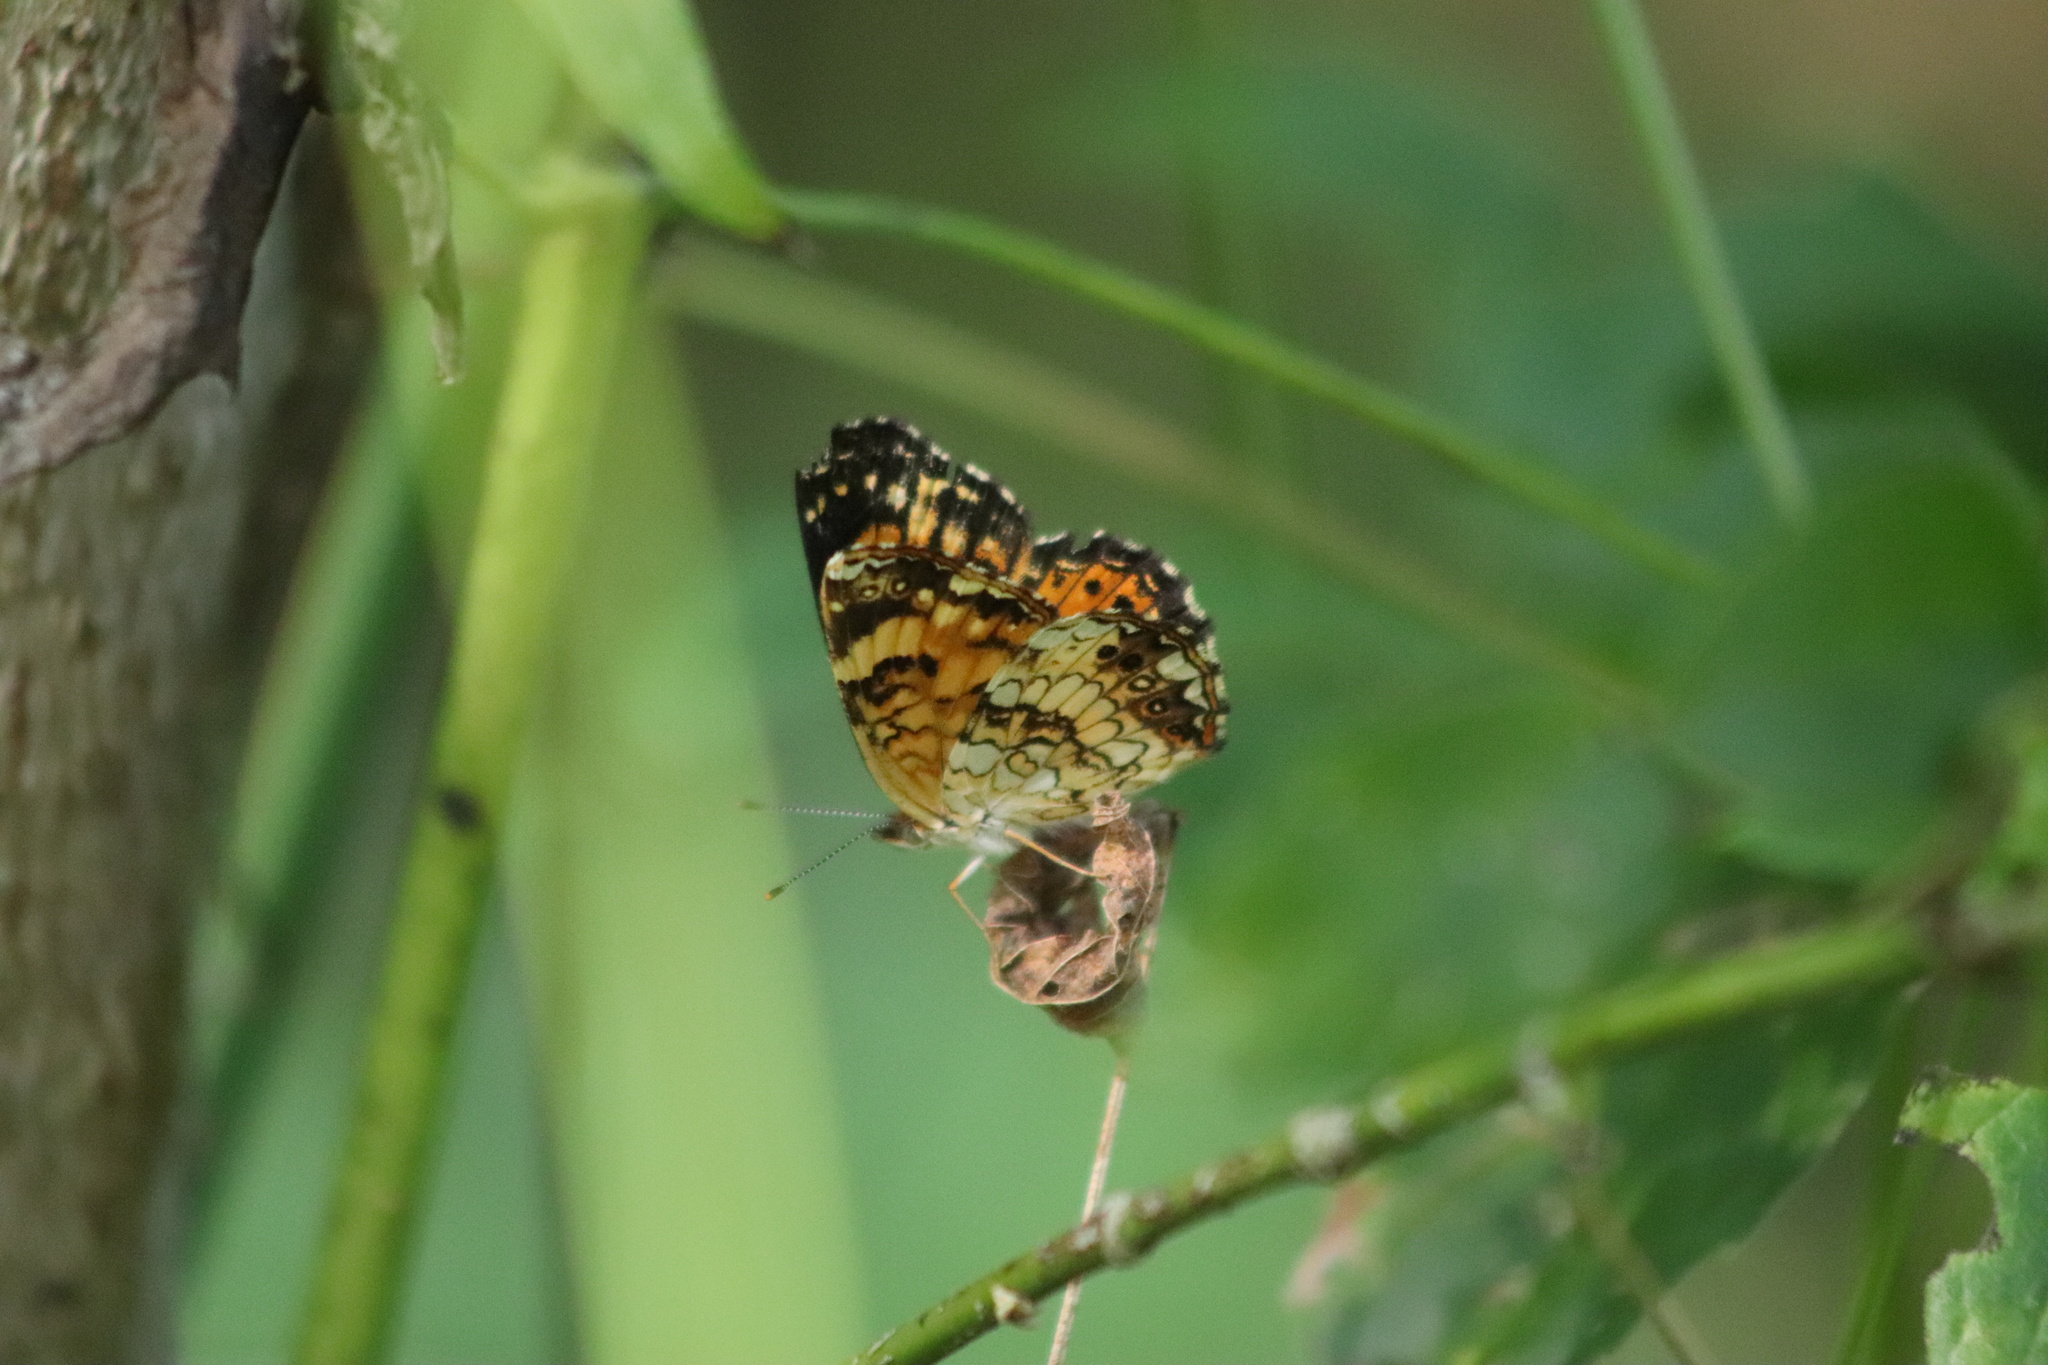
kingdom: Animalia
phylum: Arthropoda
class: Insecta
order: Lepidoptera
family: Nymphalidae
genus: Chlosyne
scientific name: Chlosyne nycteis
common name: Silvery checkerspot
